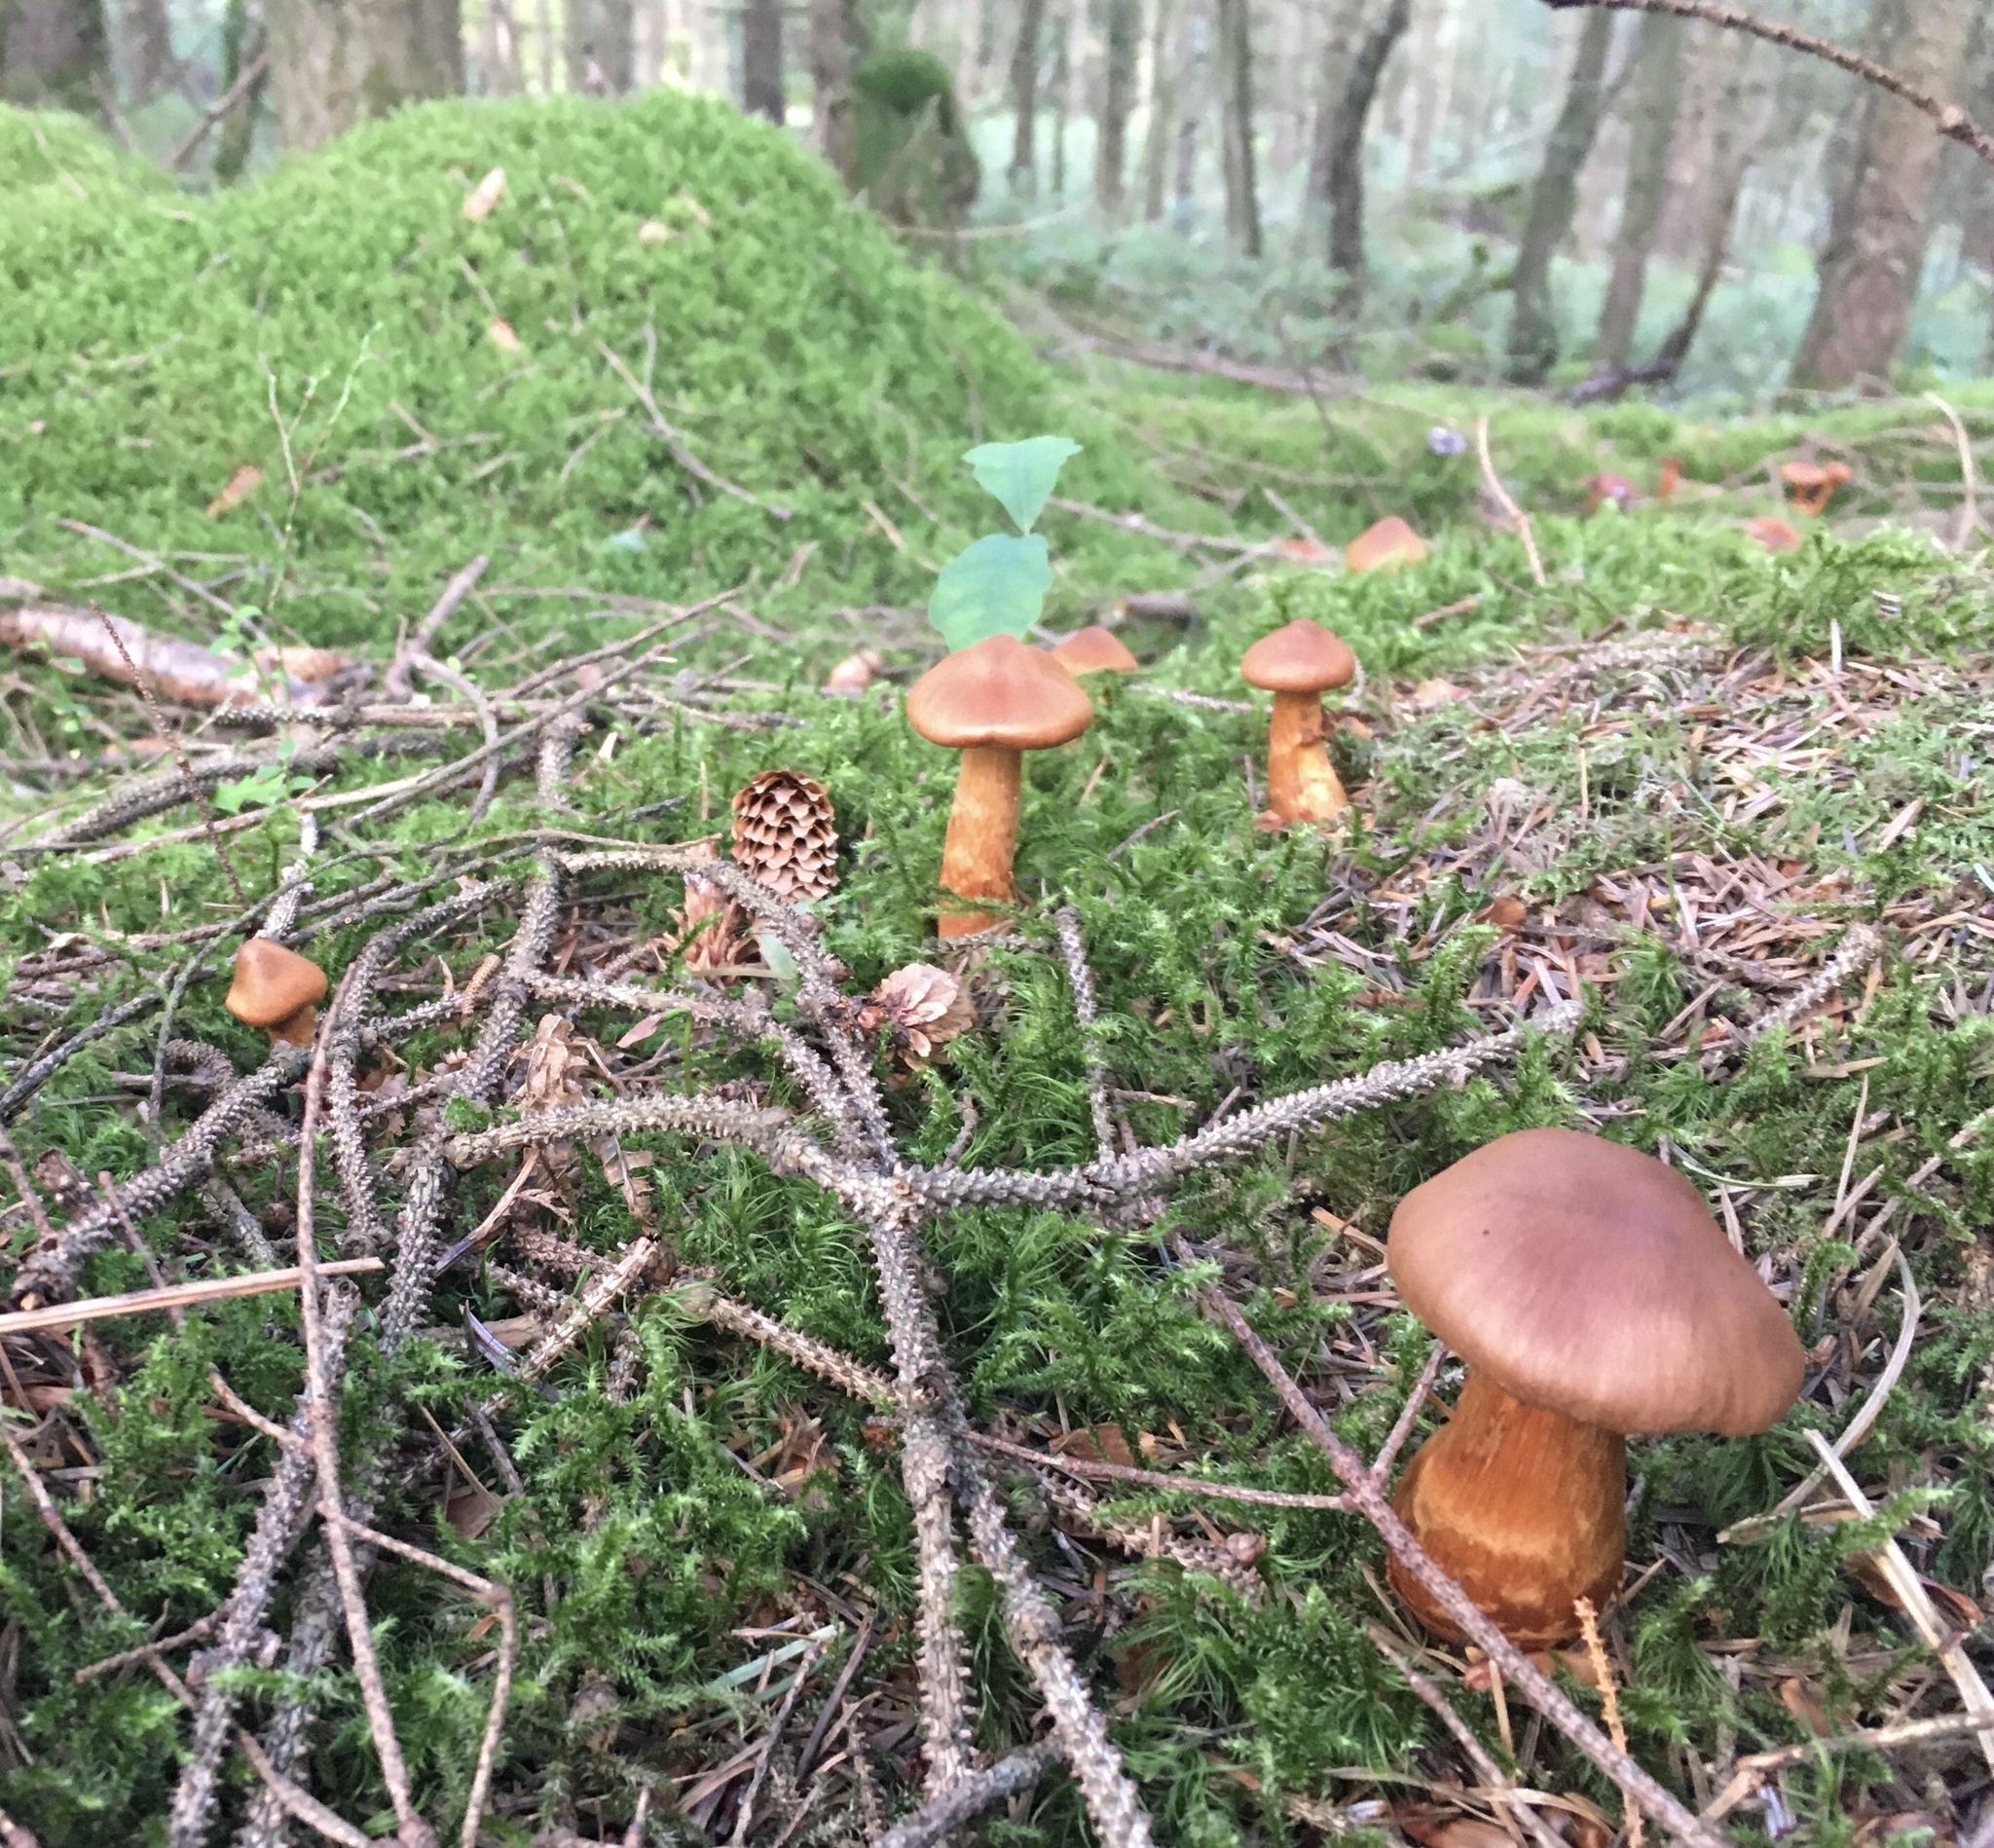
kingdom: Fungi
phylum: Basidiomycota
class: Agaricomycetes
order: Agaricales
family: Cortinariaceae
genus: Cortinarius
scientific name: Cortinarius rubellus
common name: Deadly webcap
